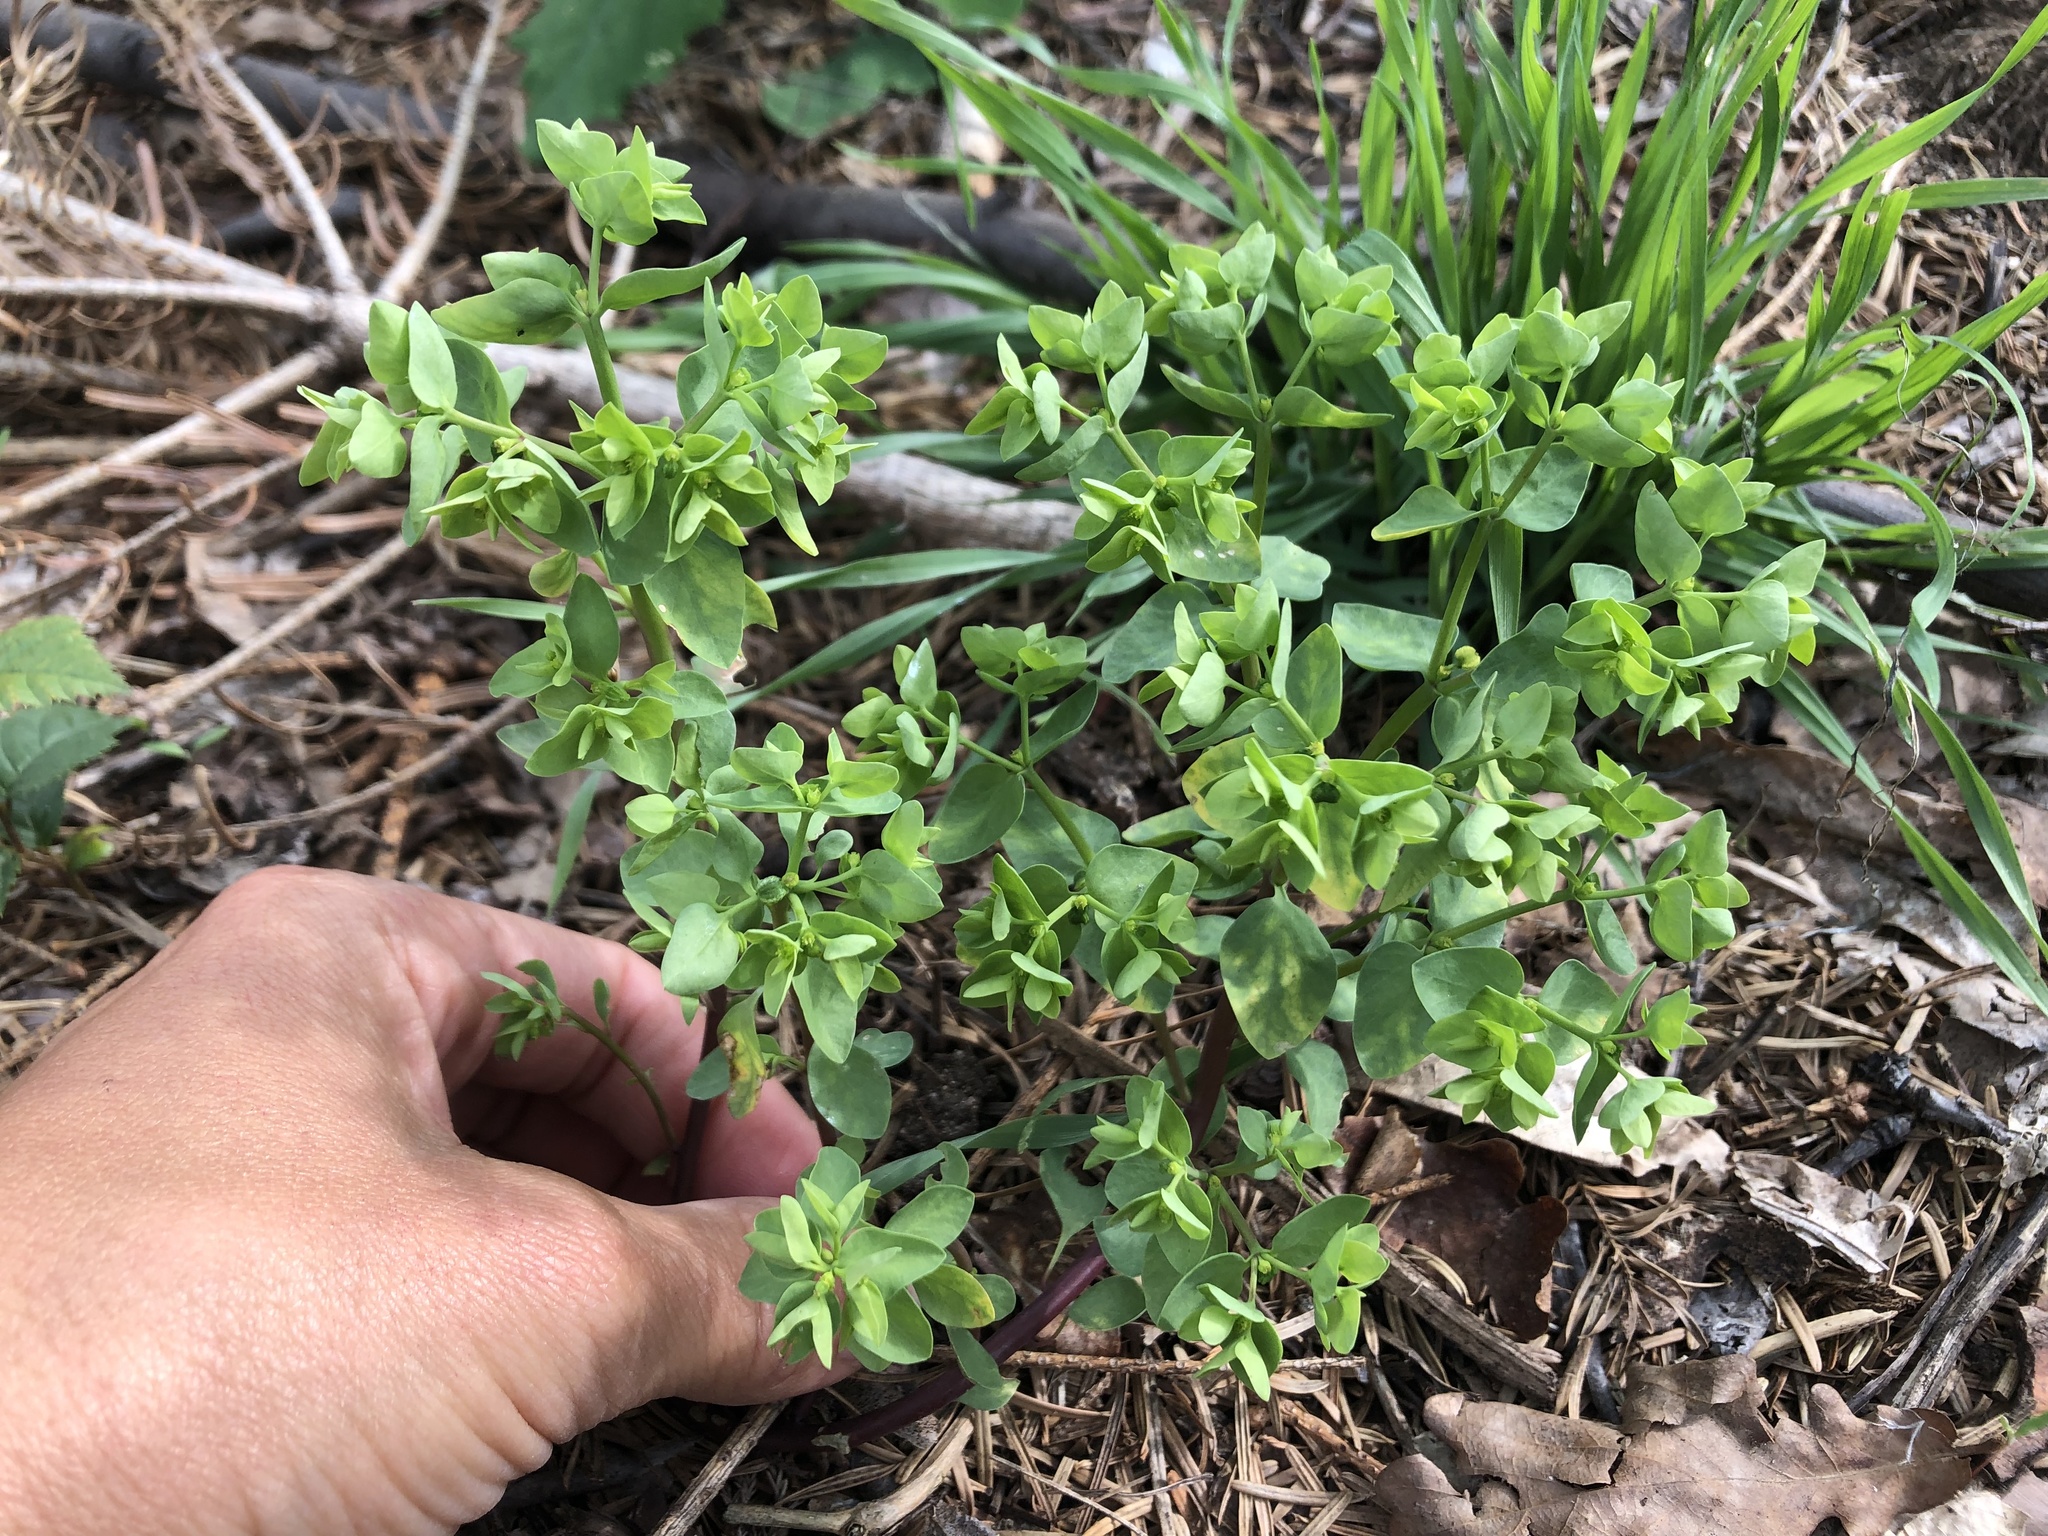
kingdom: Plantae
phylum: Tracheophyta
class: Magnoliopsida
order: Malpighiales
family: Euphorbiaceae
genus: Euphorbia
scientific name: Euphorbia peplus
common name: Petty spurge
